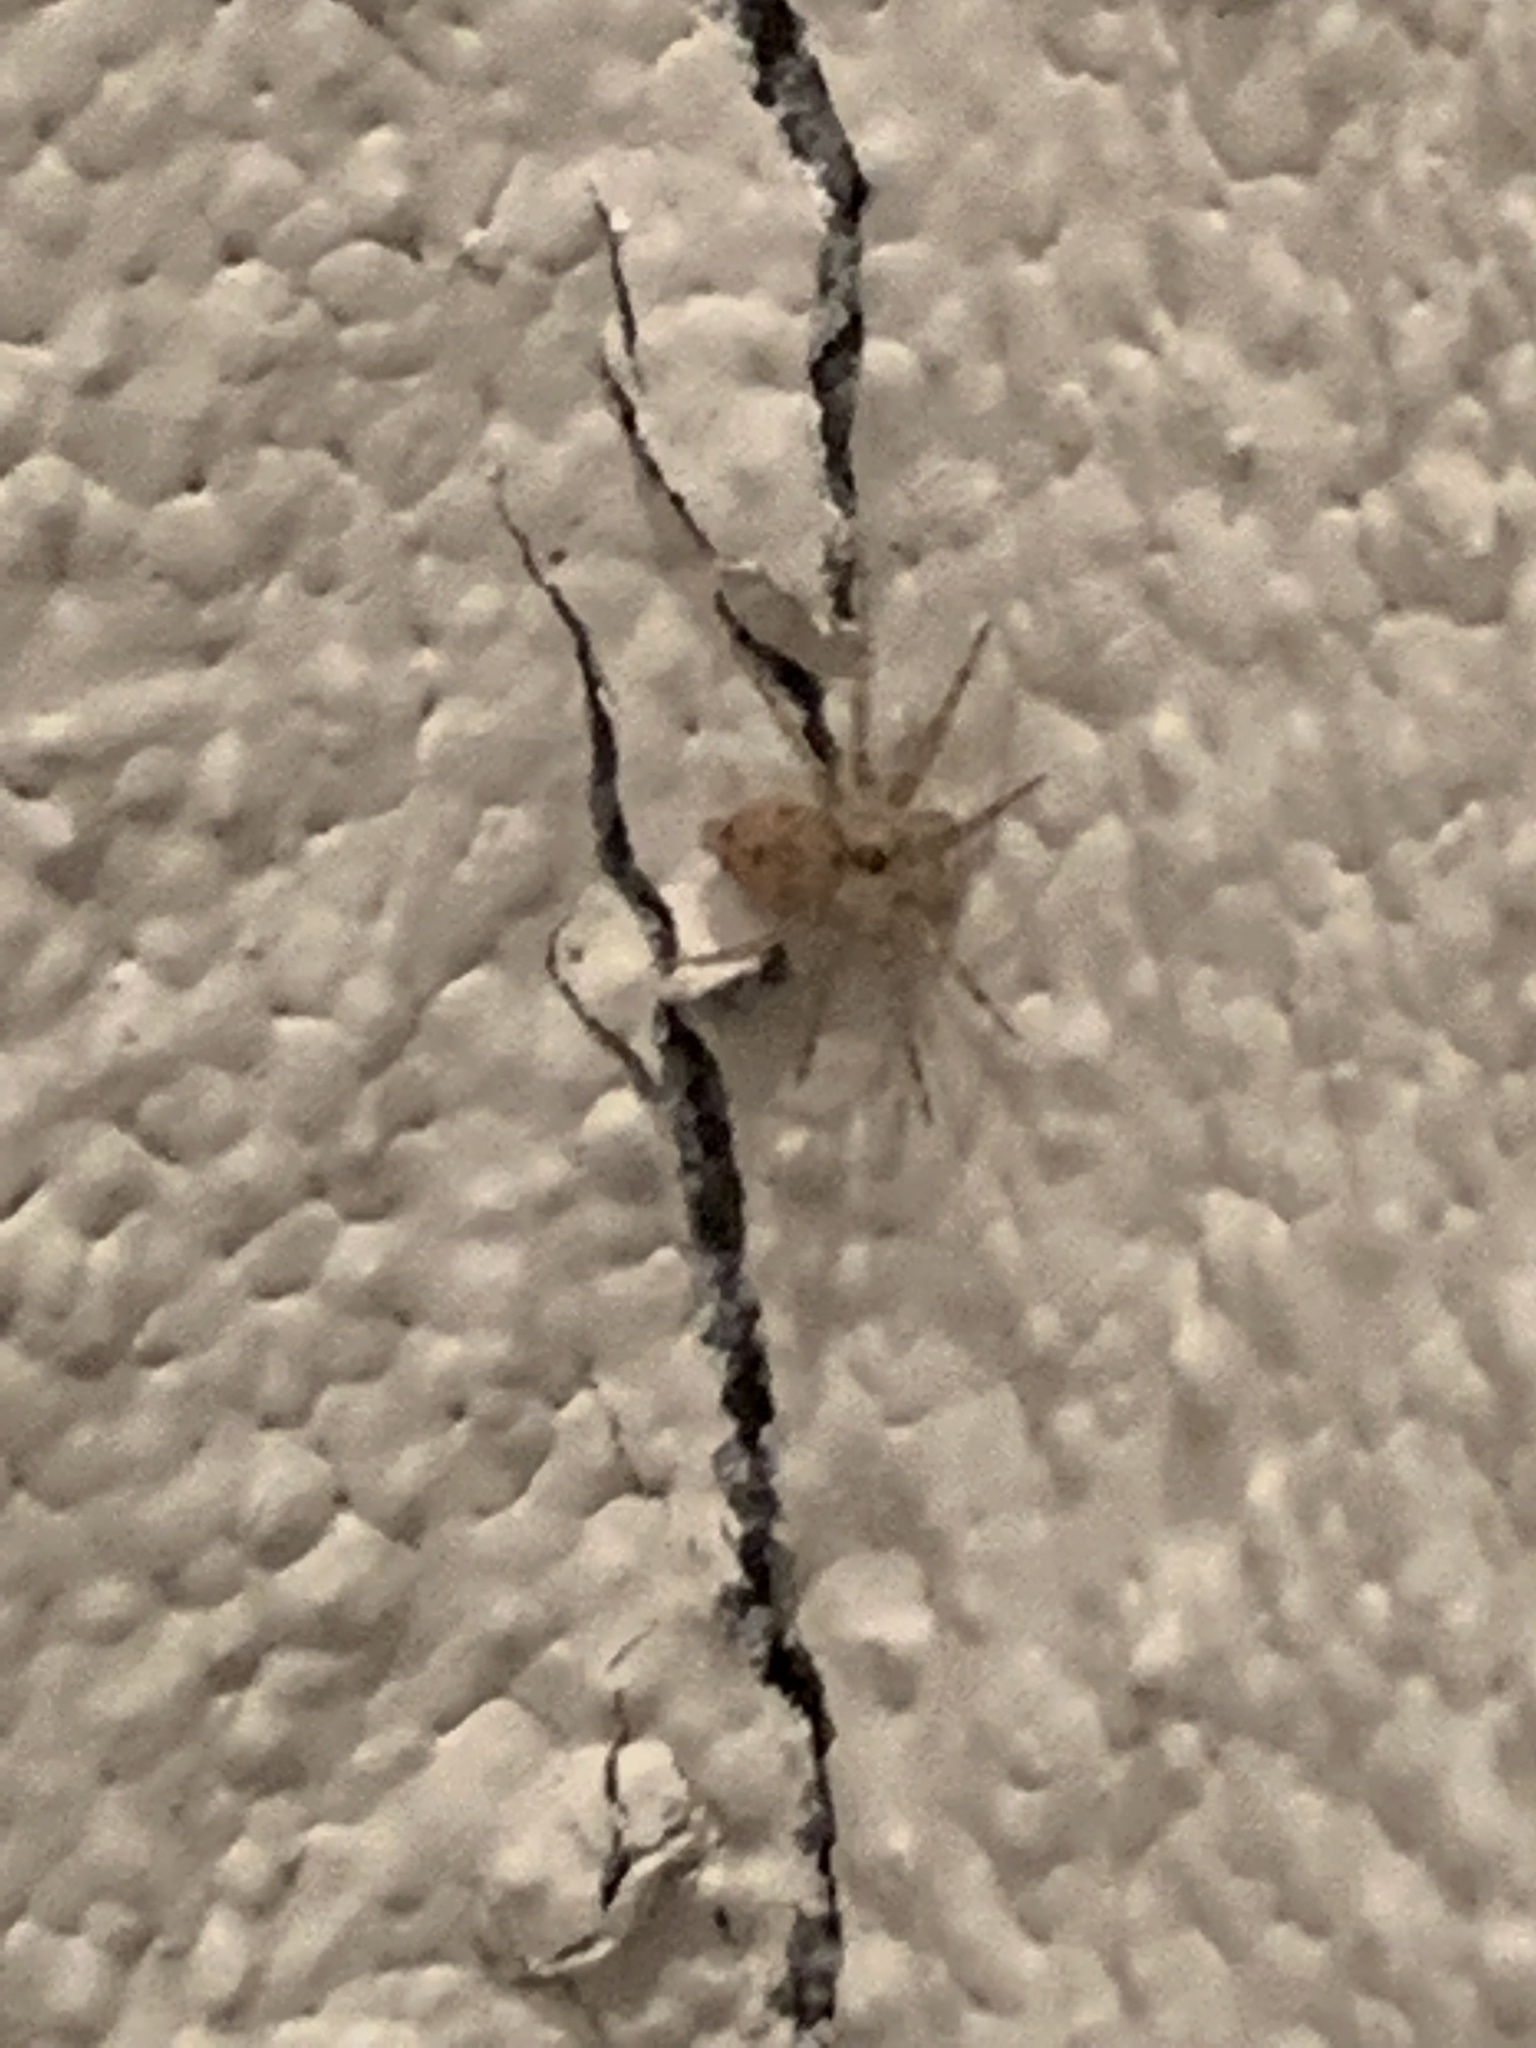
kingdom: Animalia
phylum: Arthropoda
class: Arachnida
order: Araneae
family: Oecobiidae
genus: Oecobius
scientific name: Oecobius navus
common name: Flatmesh weaver
